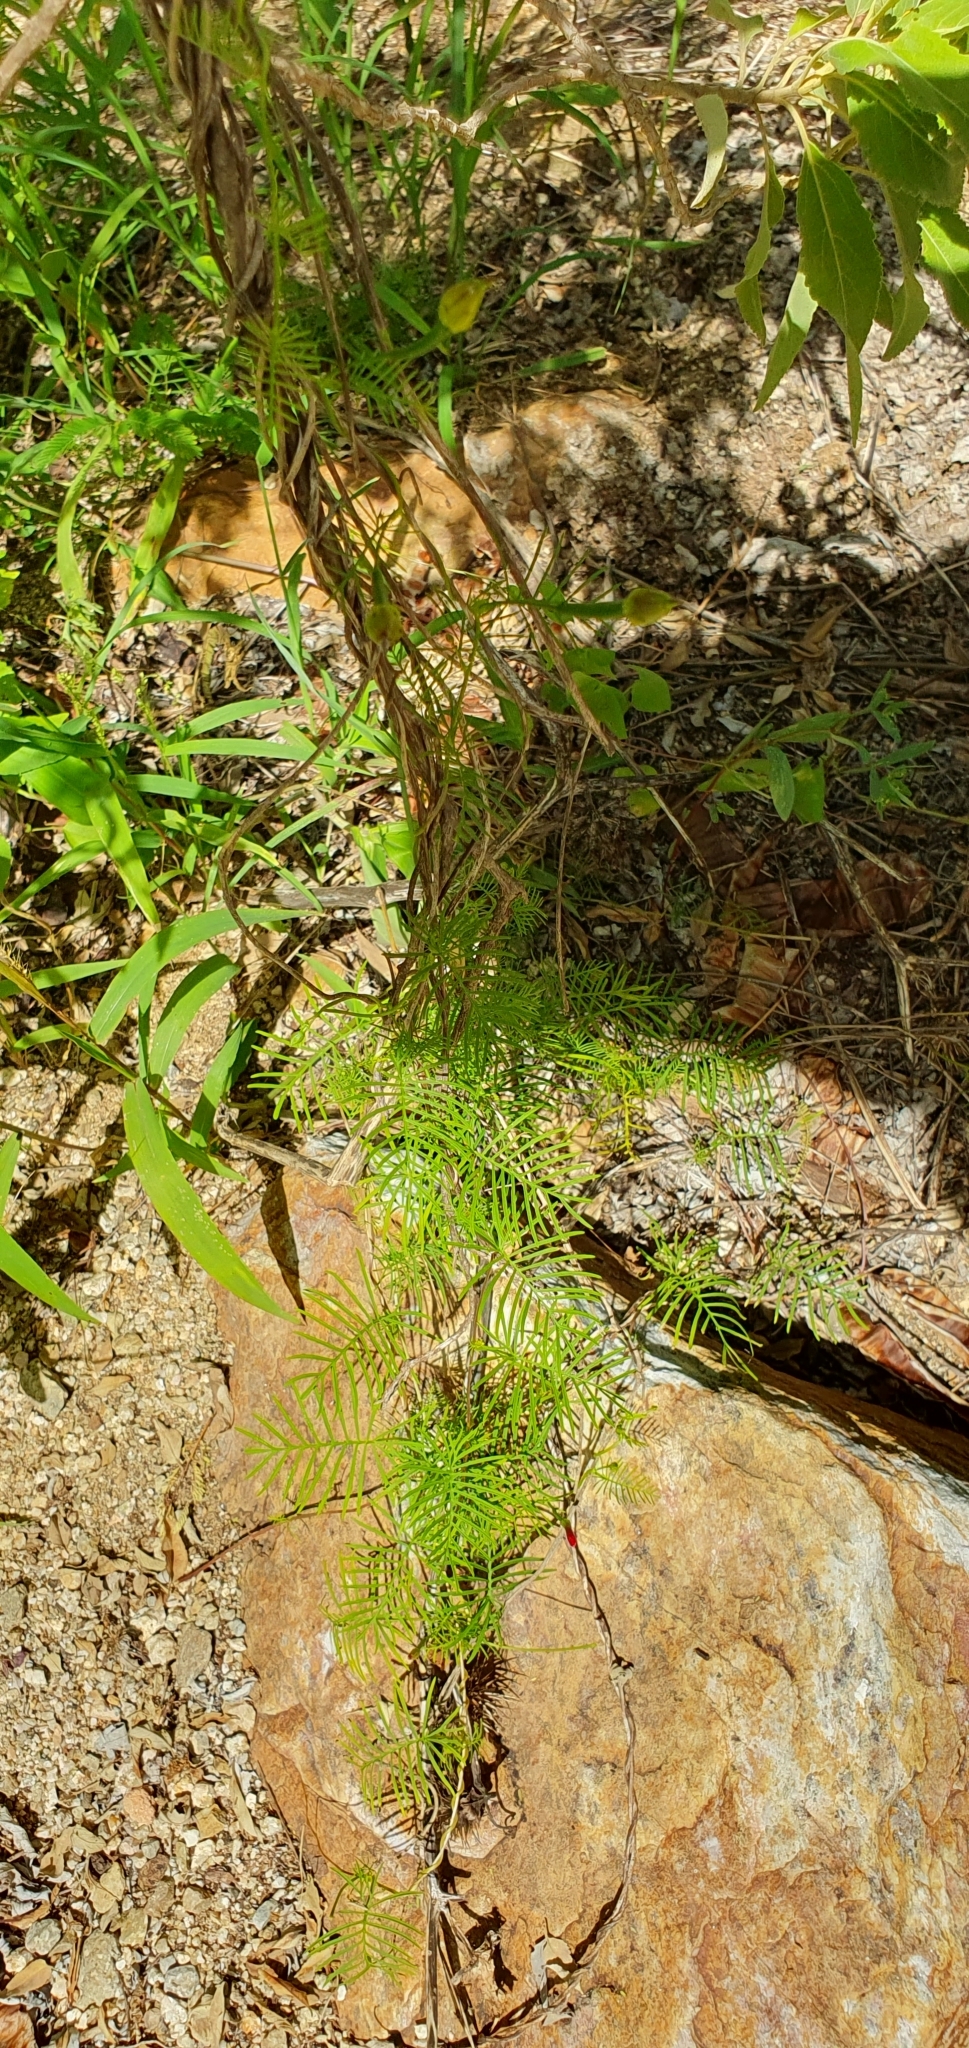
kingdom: Plantae
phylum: Tracheophyta
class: Magnoliopsida
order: Solanales
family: Convolvulaceae
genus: Ipomoea
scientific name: Ipomoea quamoclit
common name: Cypress vine
